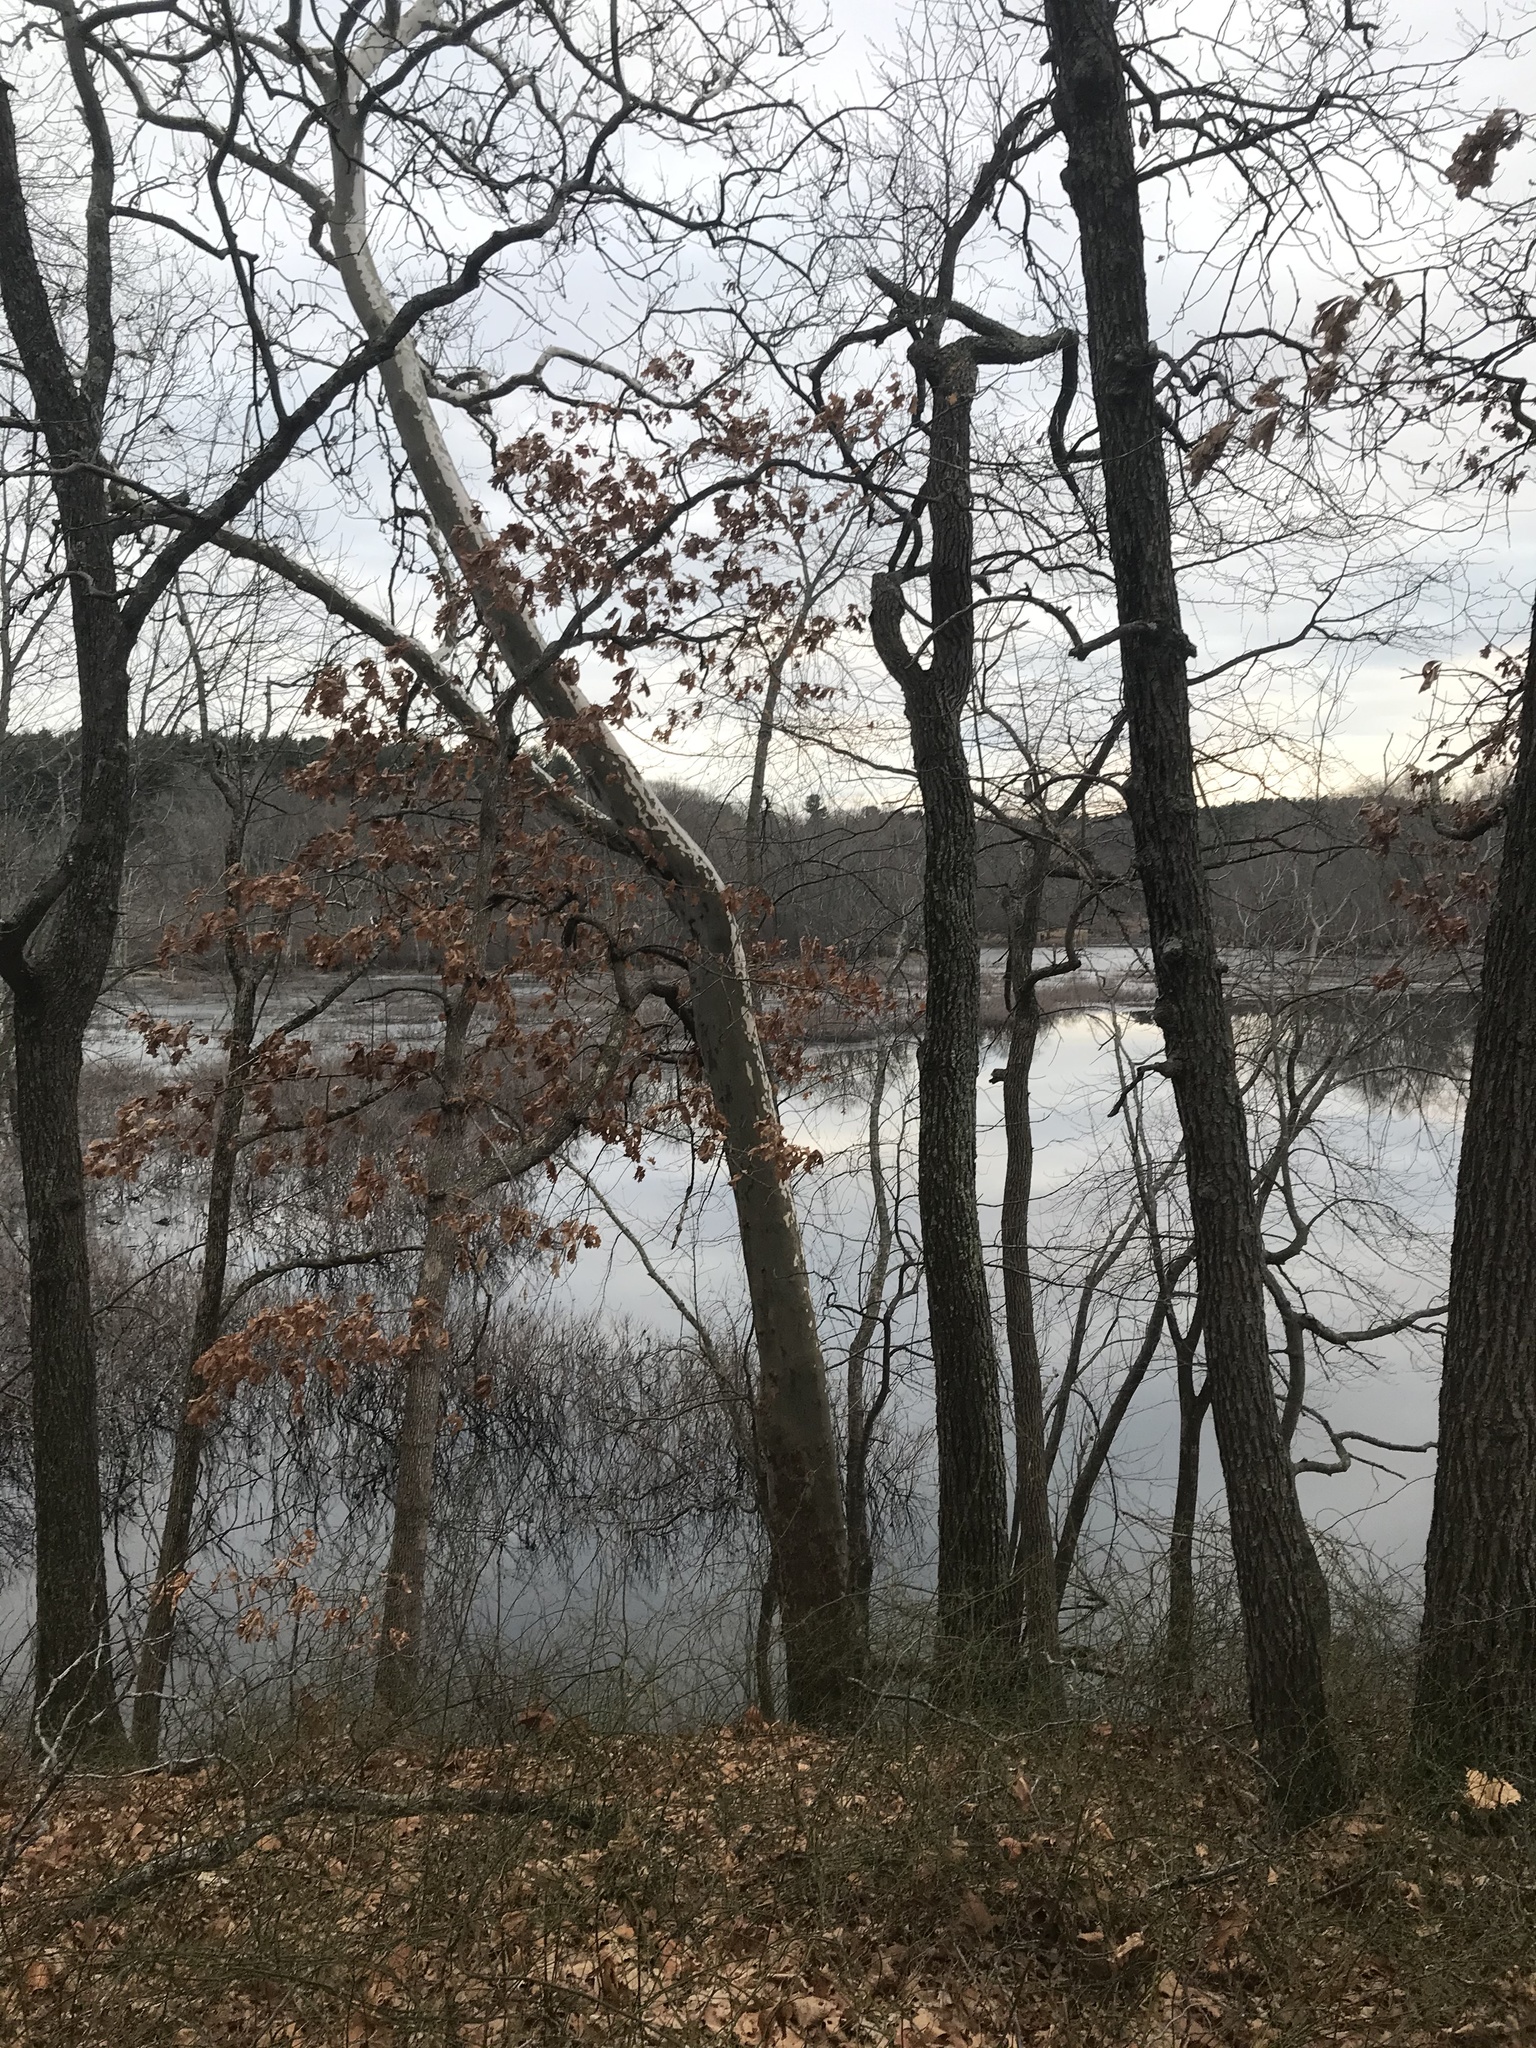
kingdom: Plantae
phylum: Tracheophyta
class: Magnoliopsida
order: Proteales
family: Platanaceae
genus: Platanus
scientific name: Platanus occidentalis
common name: American sycamore
